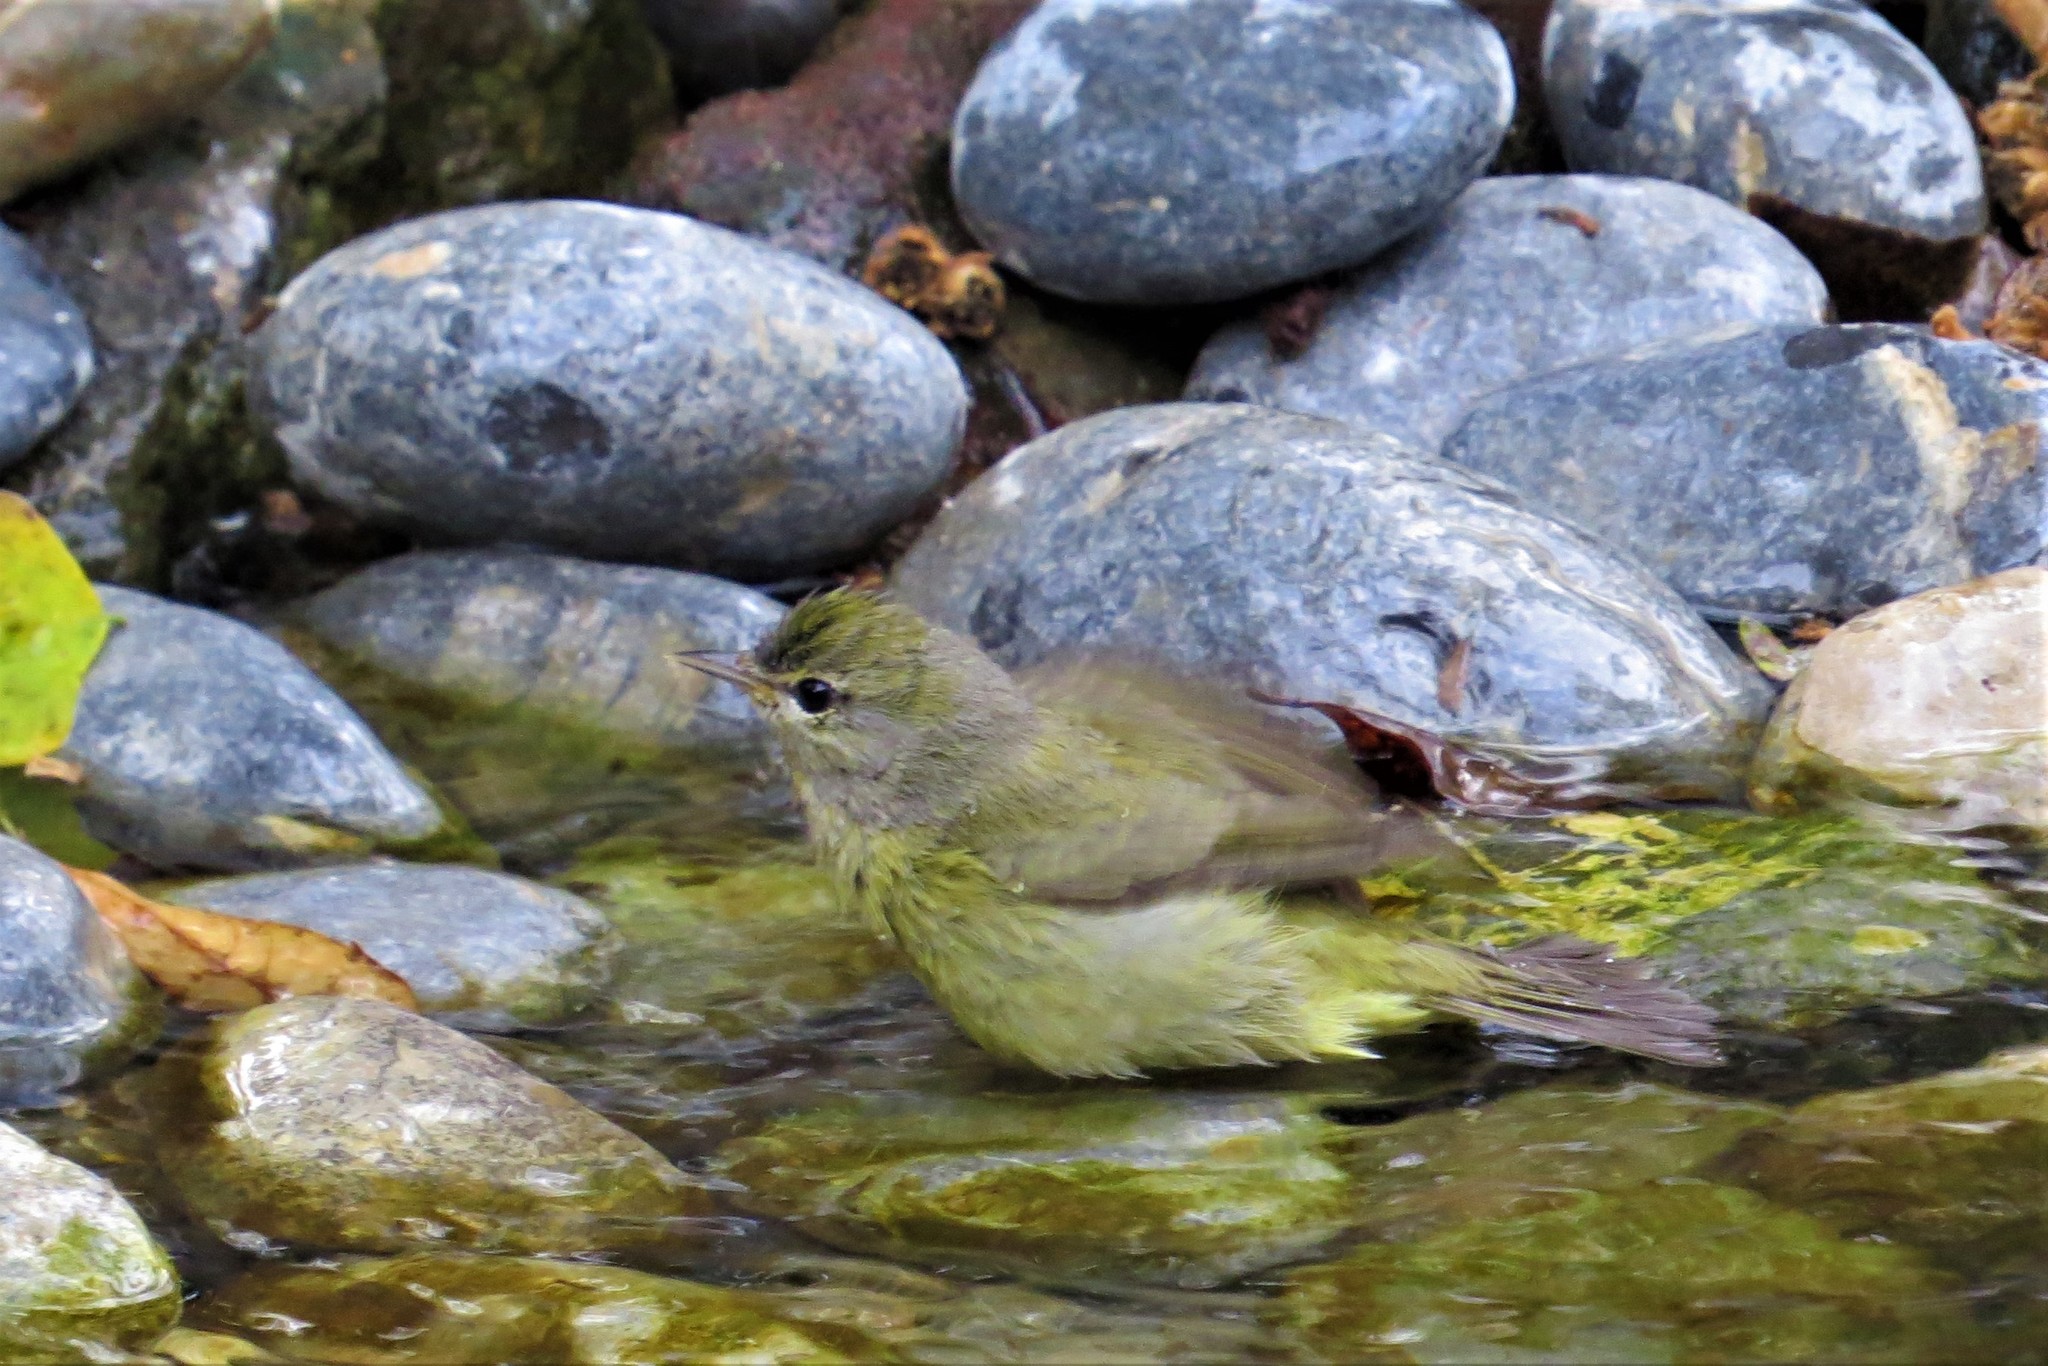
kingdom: Animalia
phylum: Chordata
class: Aves
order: Passeriformes
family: Parulidae
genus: Leiothlypis
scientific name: Leiothlypis celata
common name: Orange-crowned warbler
